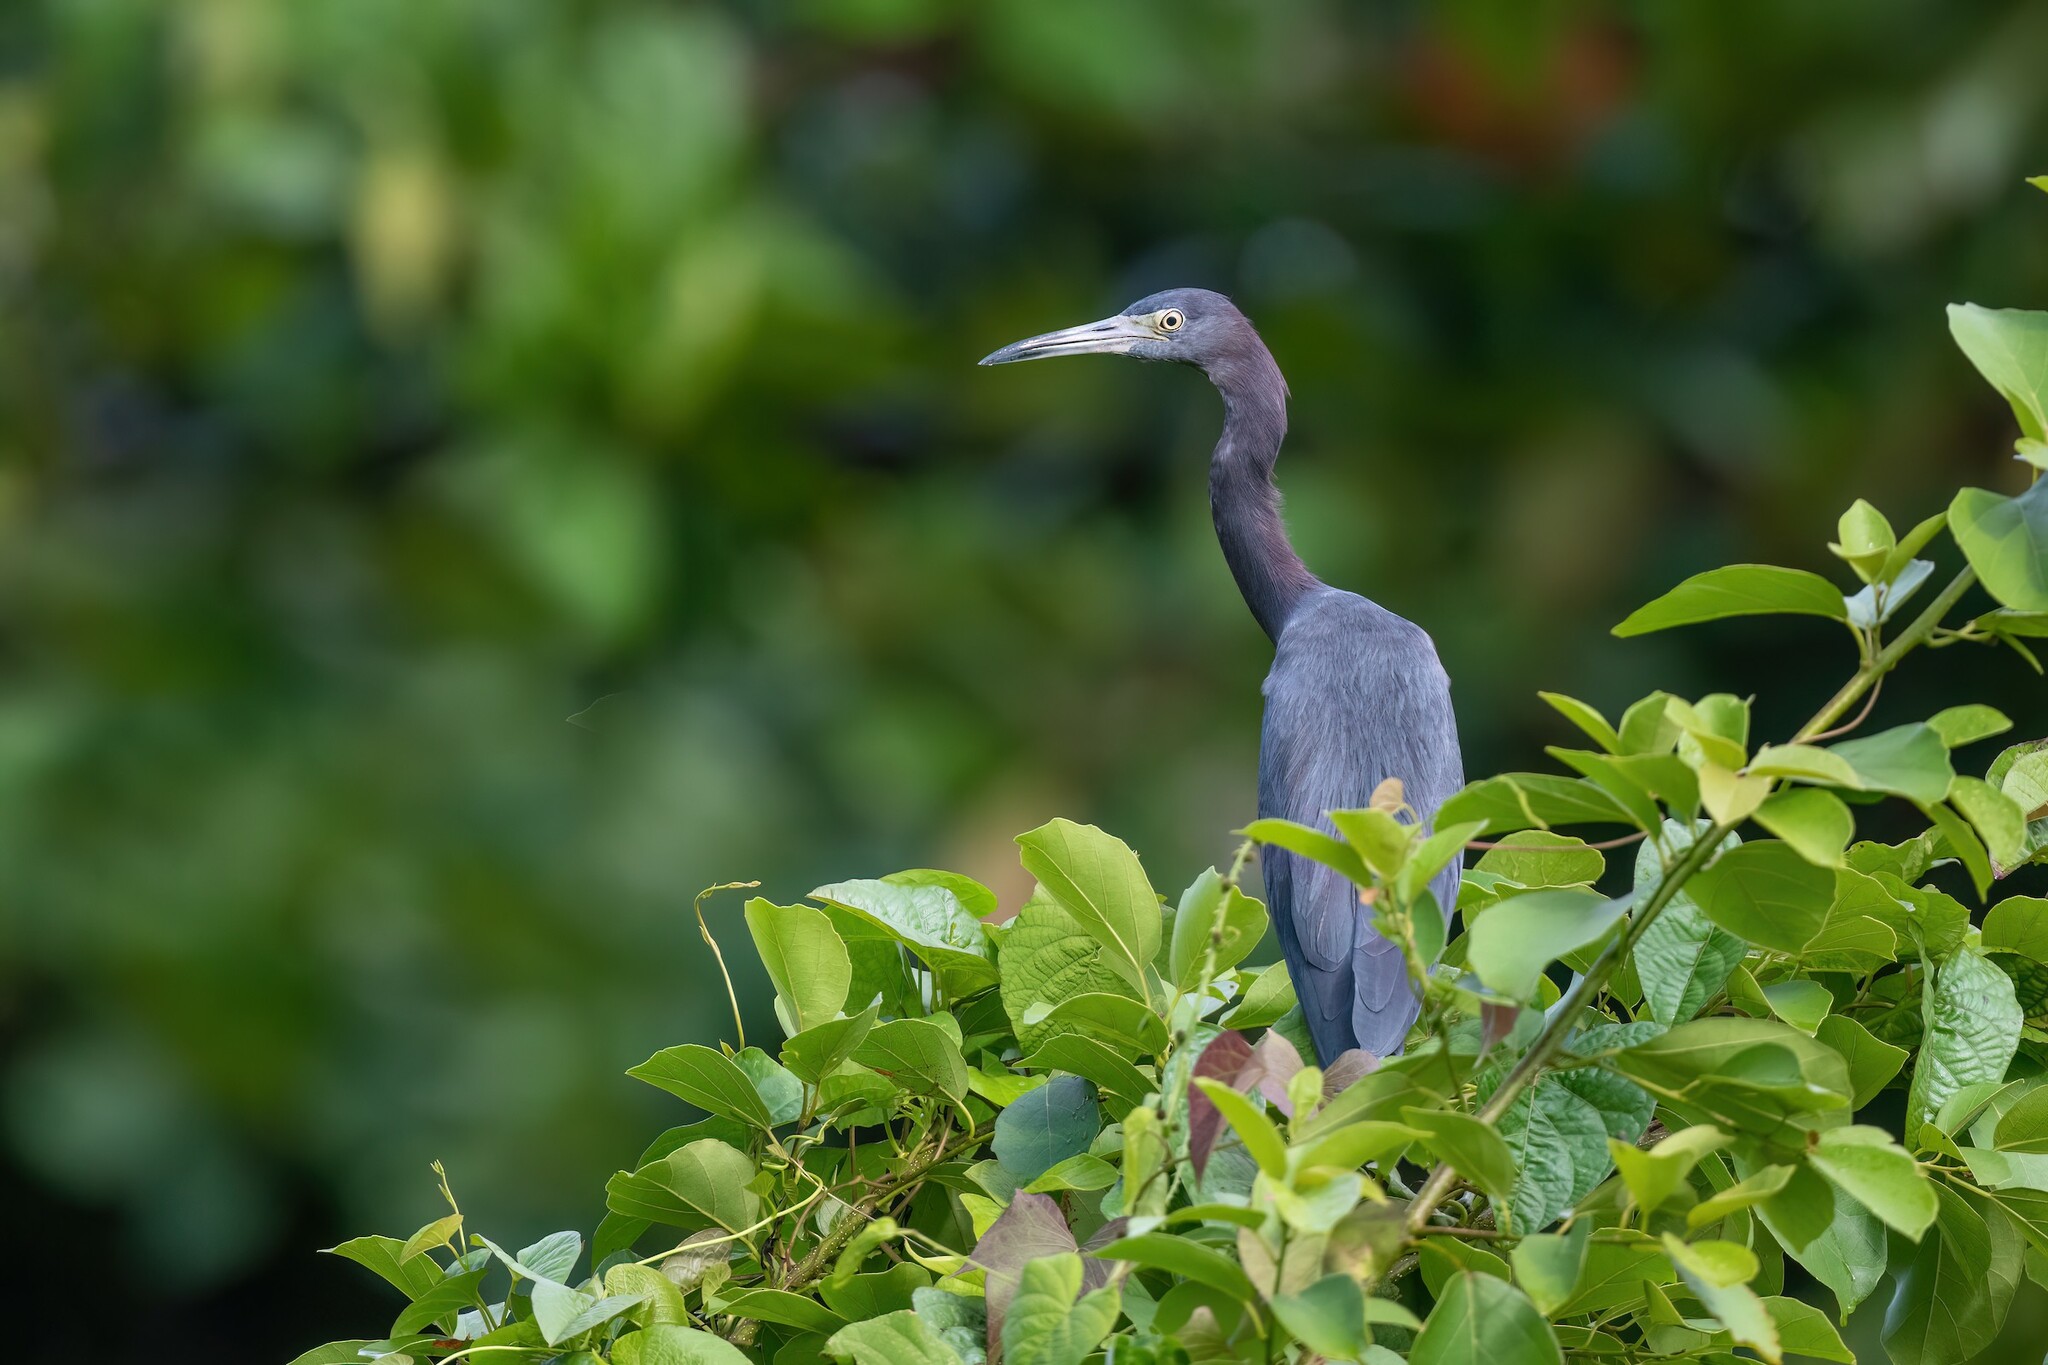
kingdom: Animalia
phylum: Chordata
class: Aves
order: Pelecaniformes
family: Ardeidae
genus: Egretta
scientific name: Egretta caerulea
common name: Little blue heron
